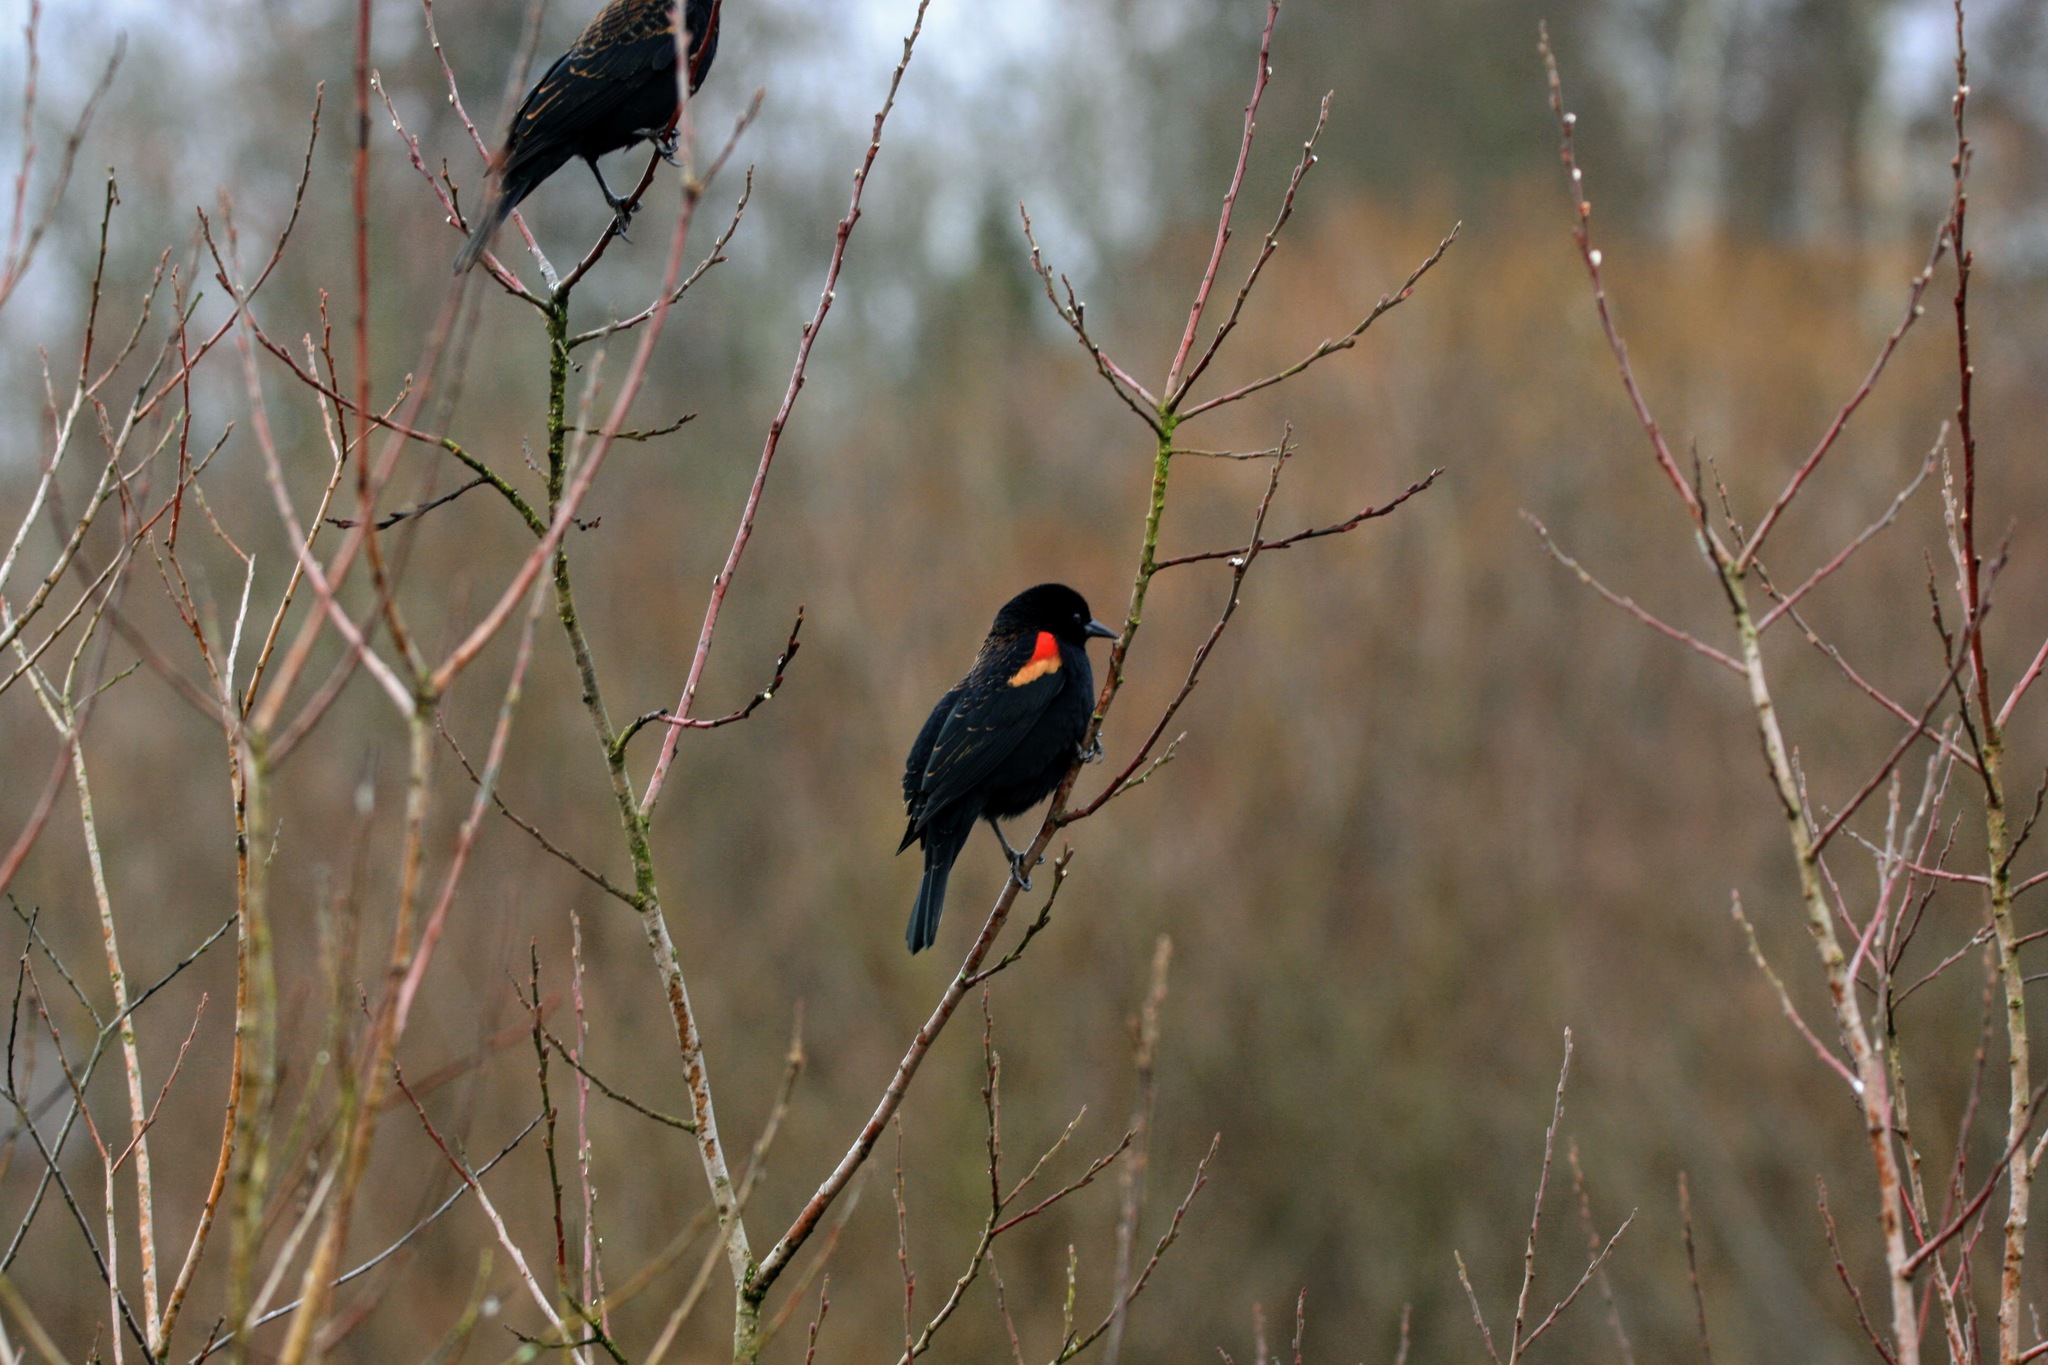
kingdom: Animalia
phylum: Chordata
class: Aves
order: Passeriformes
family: Icteridae
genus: Agelaius
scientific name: Agelaius phoeniceus
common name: Red-winged blackbird
